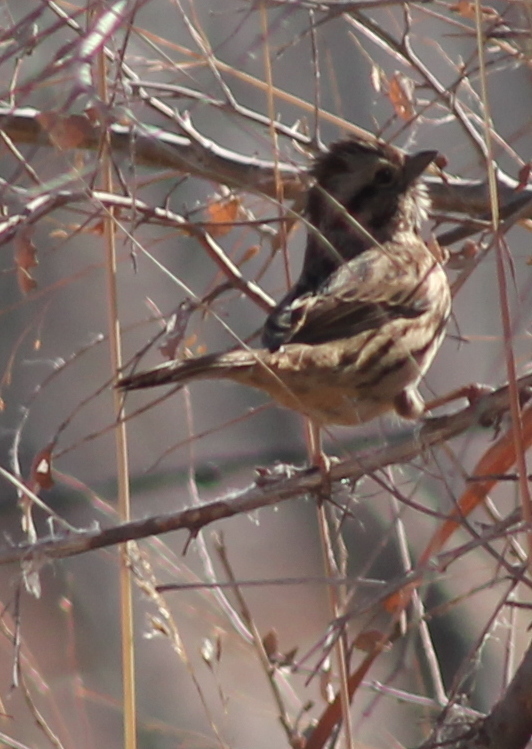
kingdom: Animalia
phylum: Chordata
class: Aves
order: Passeriformes
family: Passerellidae
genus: Melospiza
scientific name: Melospiza melodia
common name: Song sparrow
